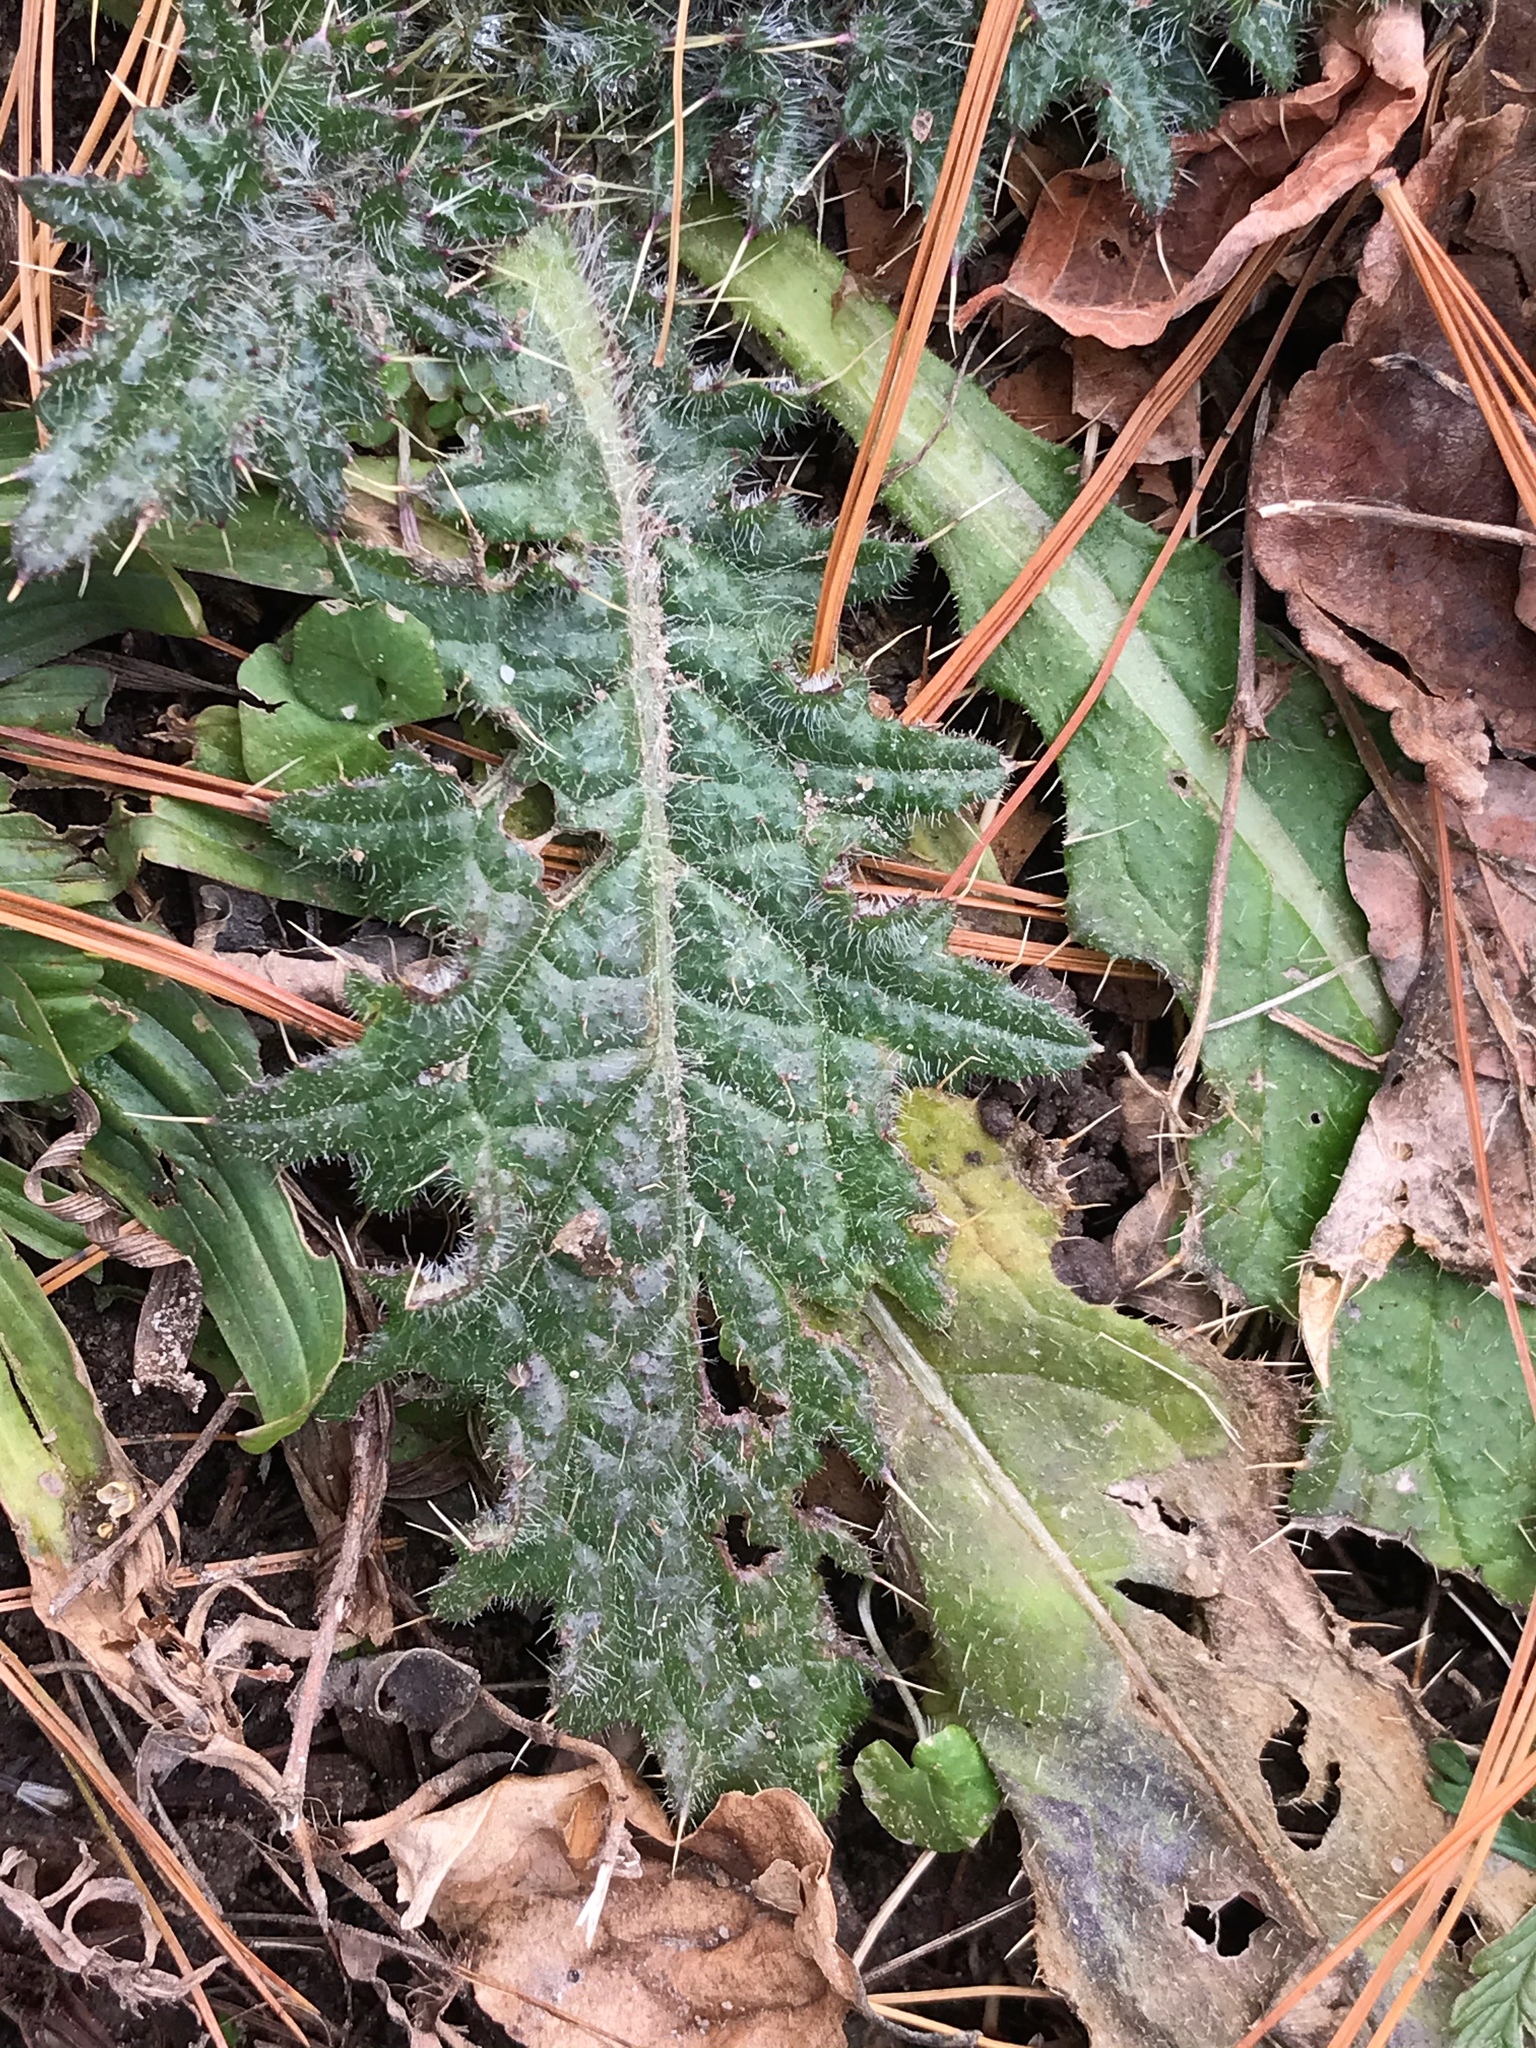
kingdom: Plantae
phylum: Tracheophyta
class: Magnoliopsida
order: Asterales
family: Asteraceae
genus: Cirsium
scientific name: Cirsium vulgare
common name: Bull thistle
